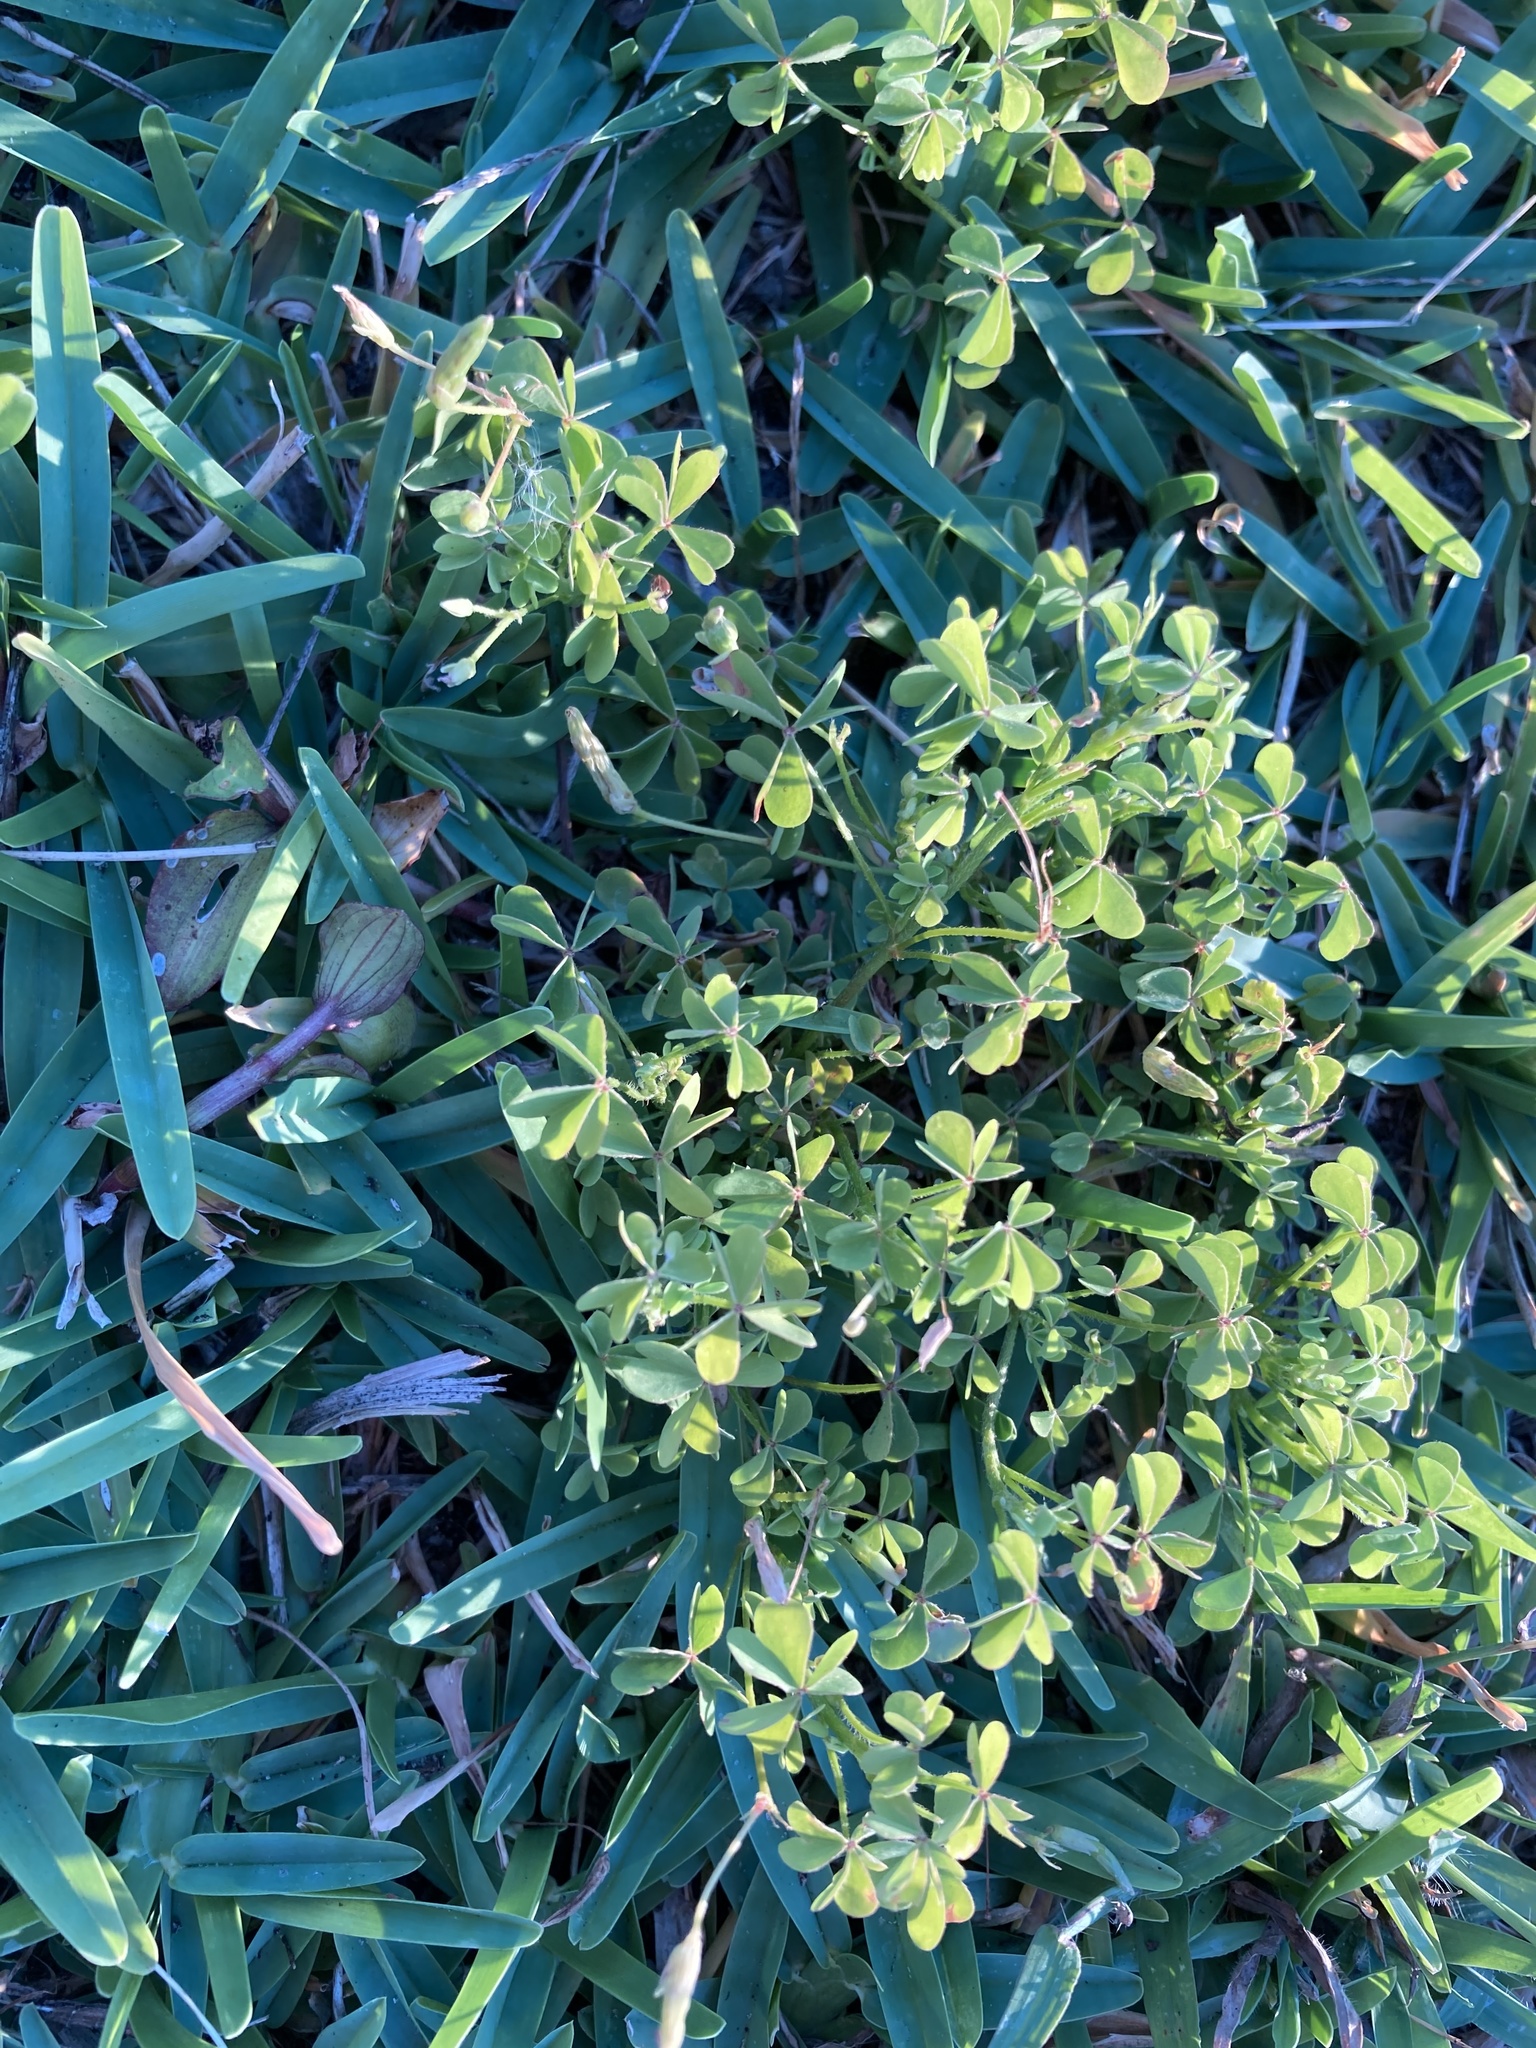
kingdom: Plantae
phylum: Tracheophyta
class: Magnoliopsida
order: Oxalidales
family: Oxalidaceae
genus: Oxalis
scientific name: Oxalis corniculata
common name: Procumbent yellow-sorrel
